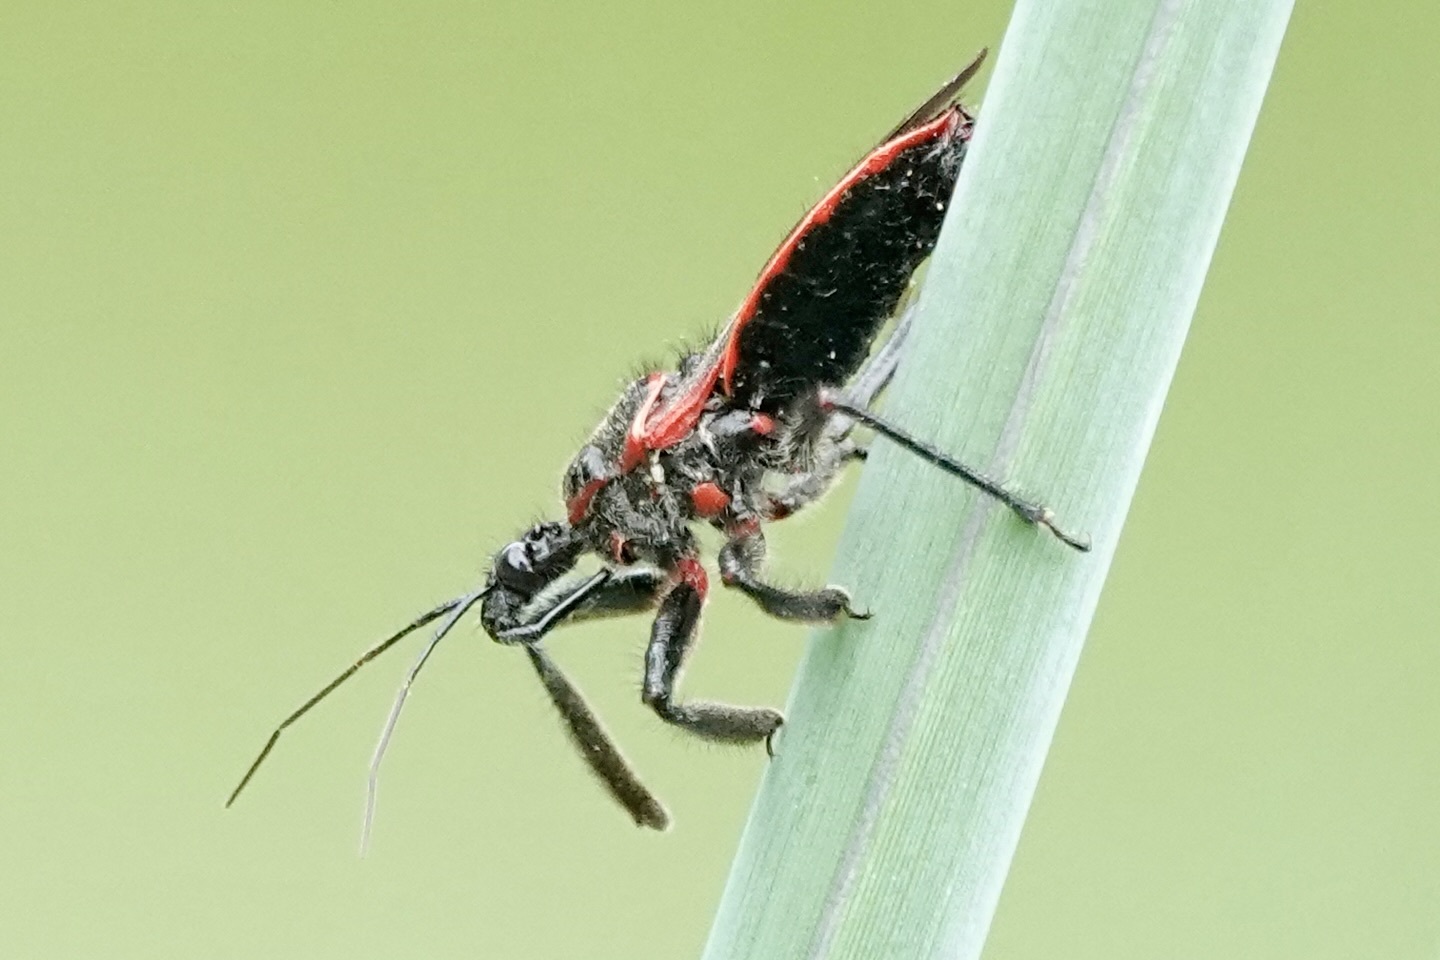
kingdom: Animalia
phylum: Arthropoda
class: Insecta
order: Hemiptera
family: Reduviidae
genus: Apiomerus
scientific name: Apiomerus crassipes
